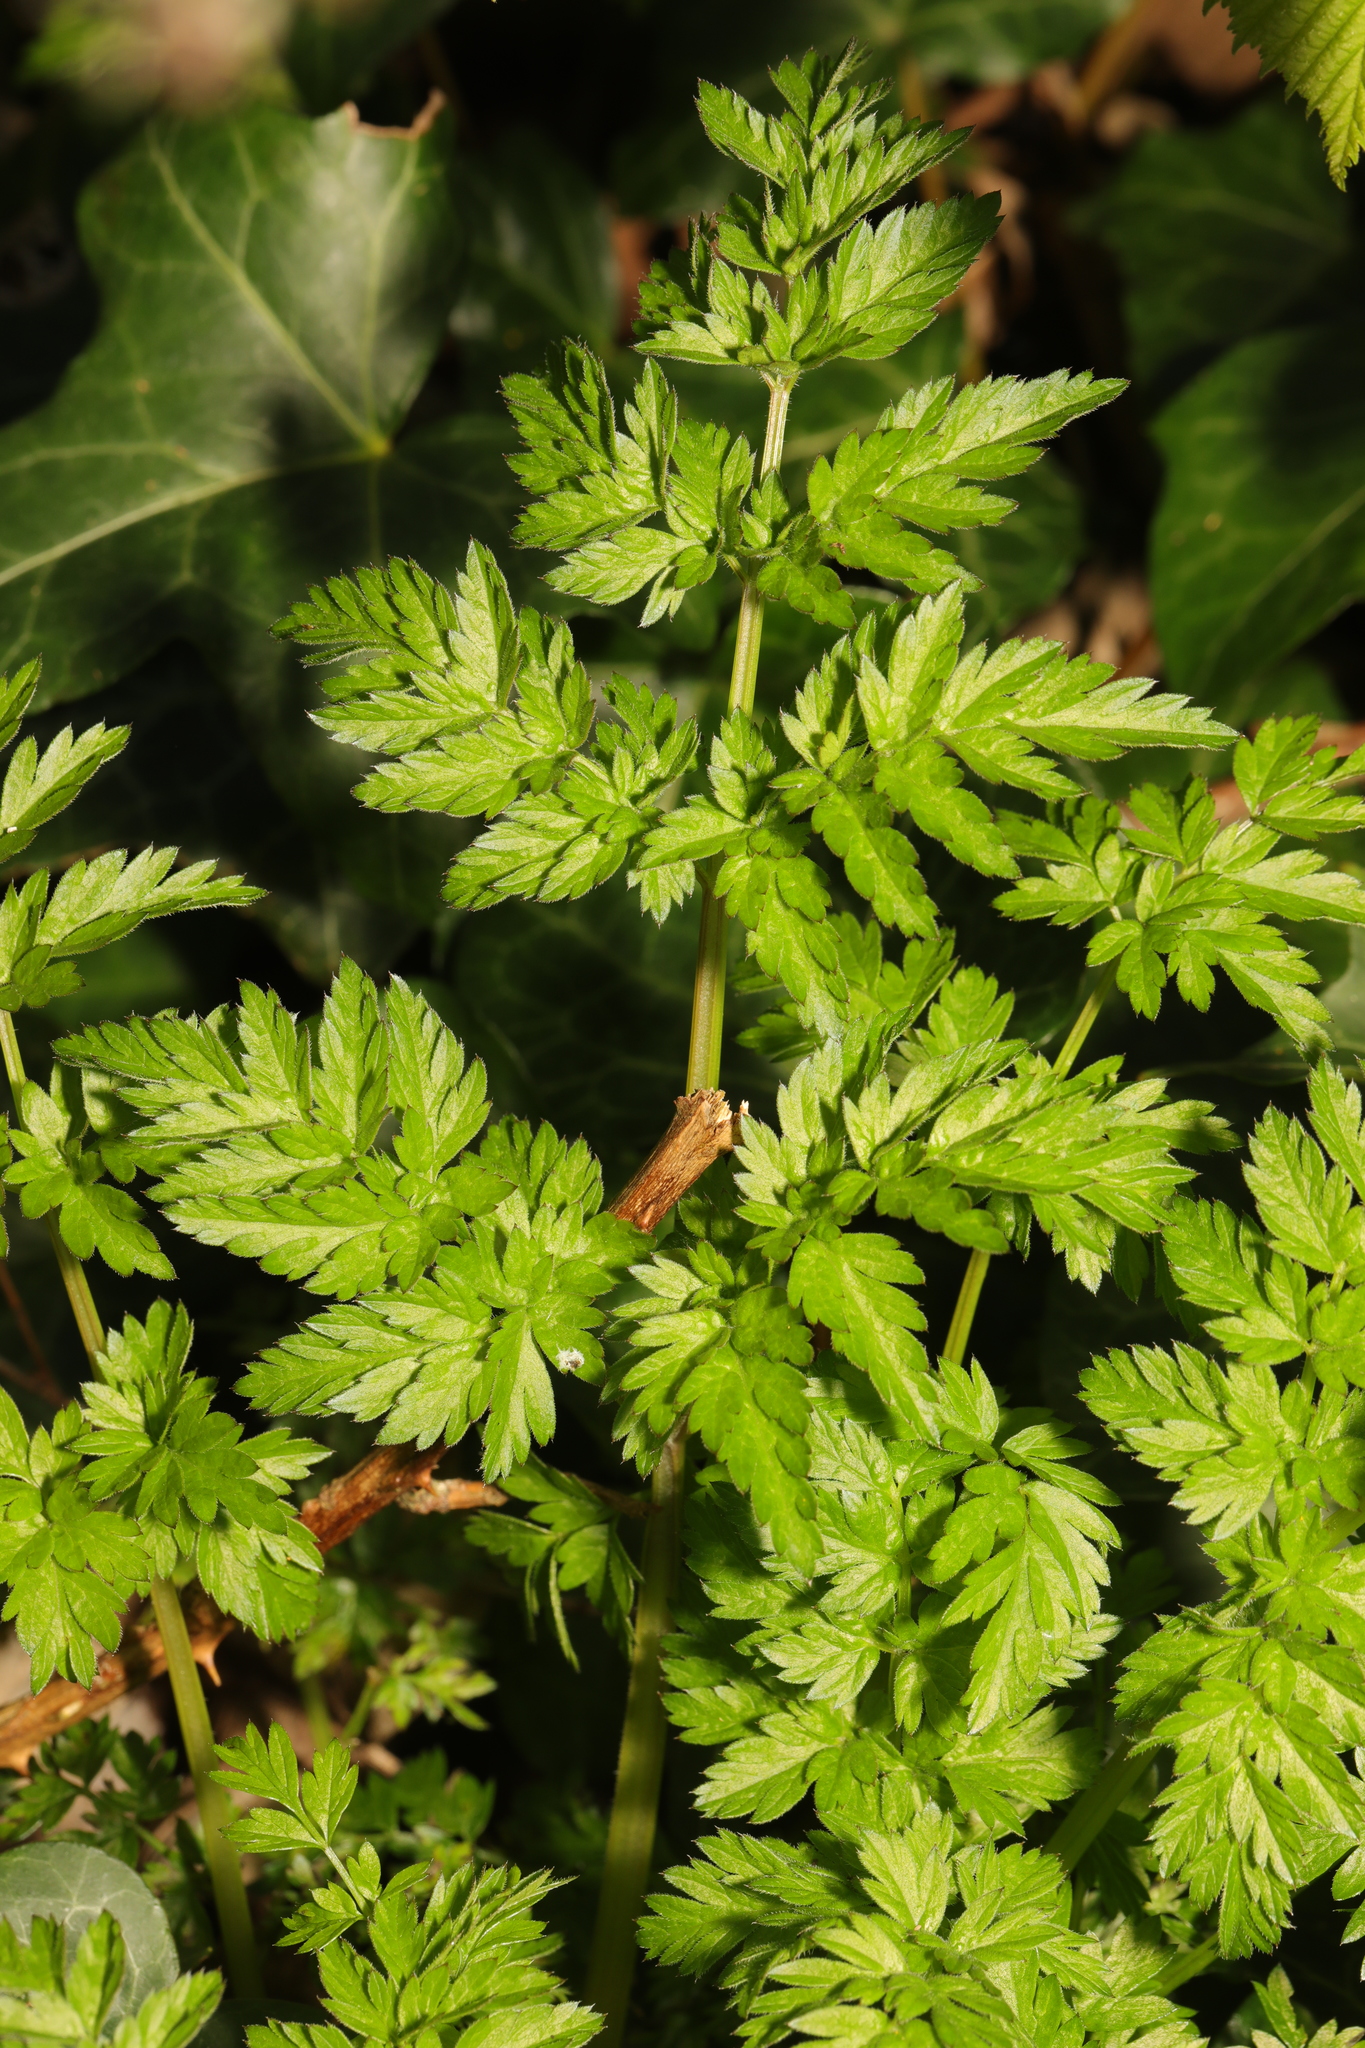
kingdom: Plantae
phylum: Tracheophyta
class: Magnoliopsida
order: Apiales
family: Apiaceae
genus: Anthriscus
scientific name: Anthriscus sylvestris
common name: Cow parsley
